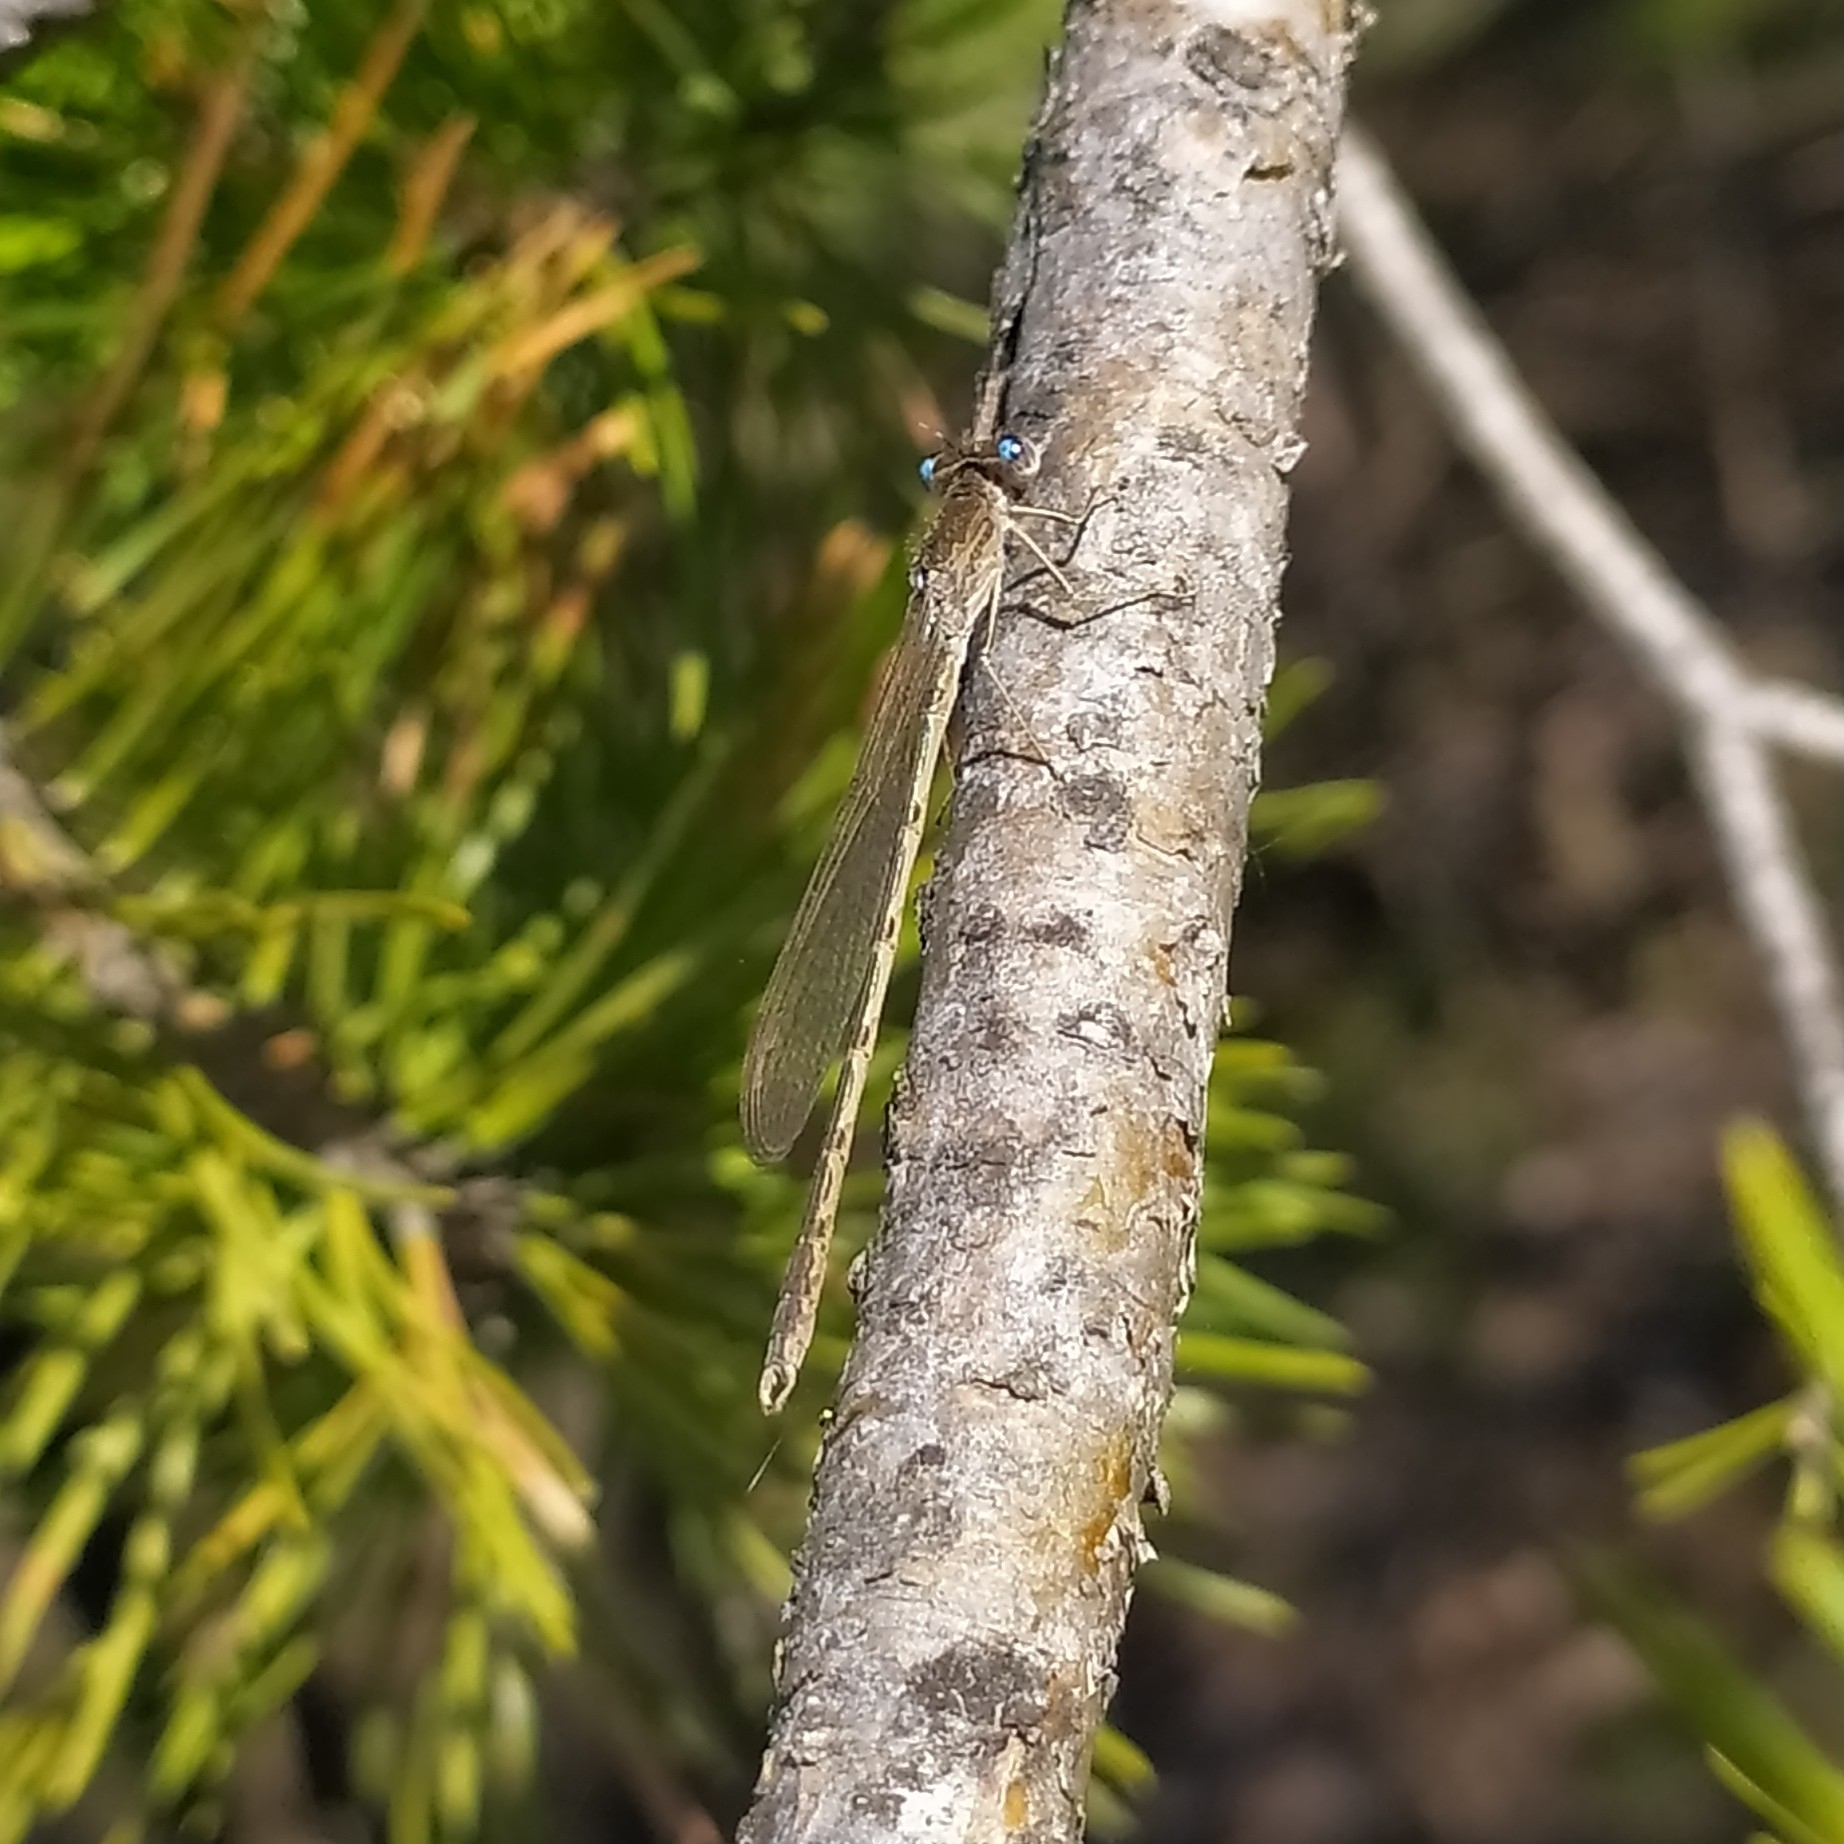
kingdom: Animalia
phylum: Arthropoda
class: Insecta
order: Odonata
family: Lestidae
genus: Sympecma
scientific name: Sympecma paedisca
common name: Siberian winter damsel
